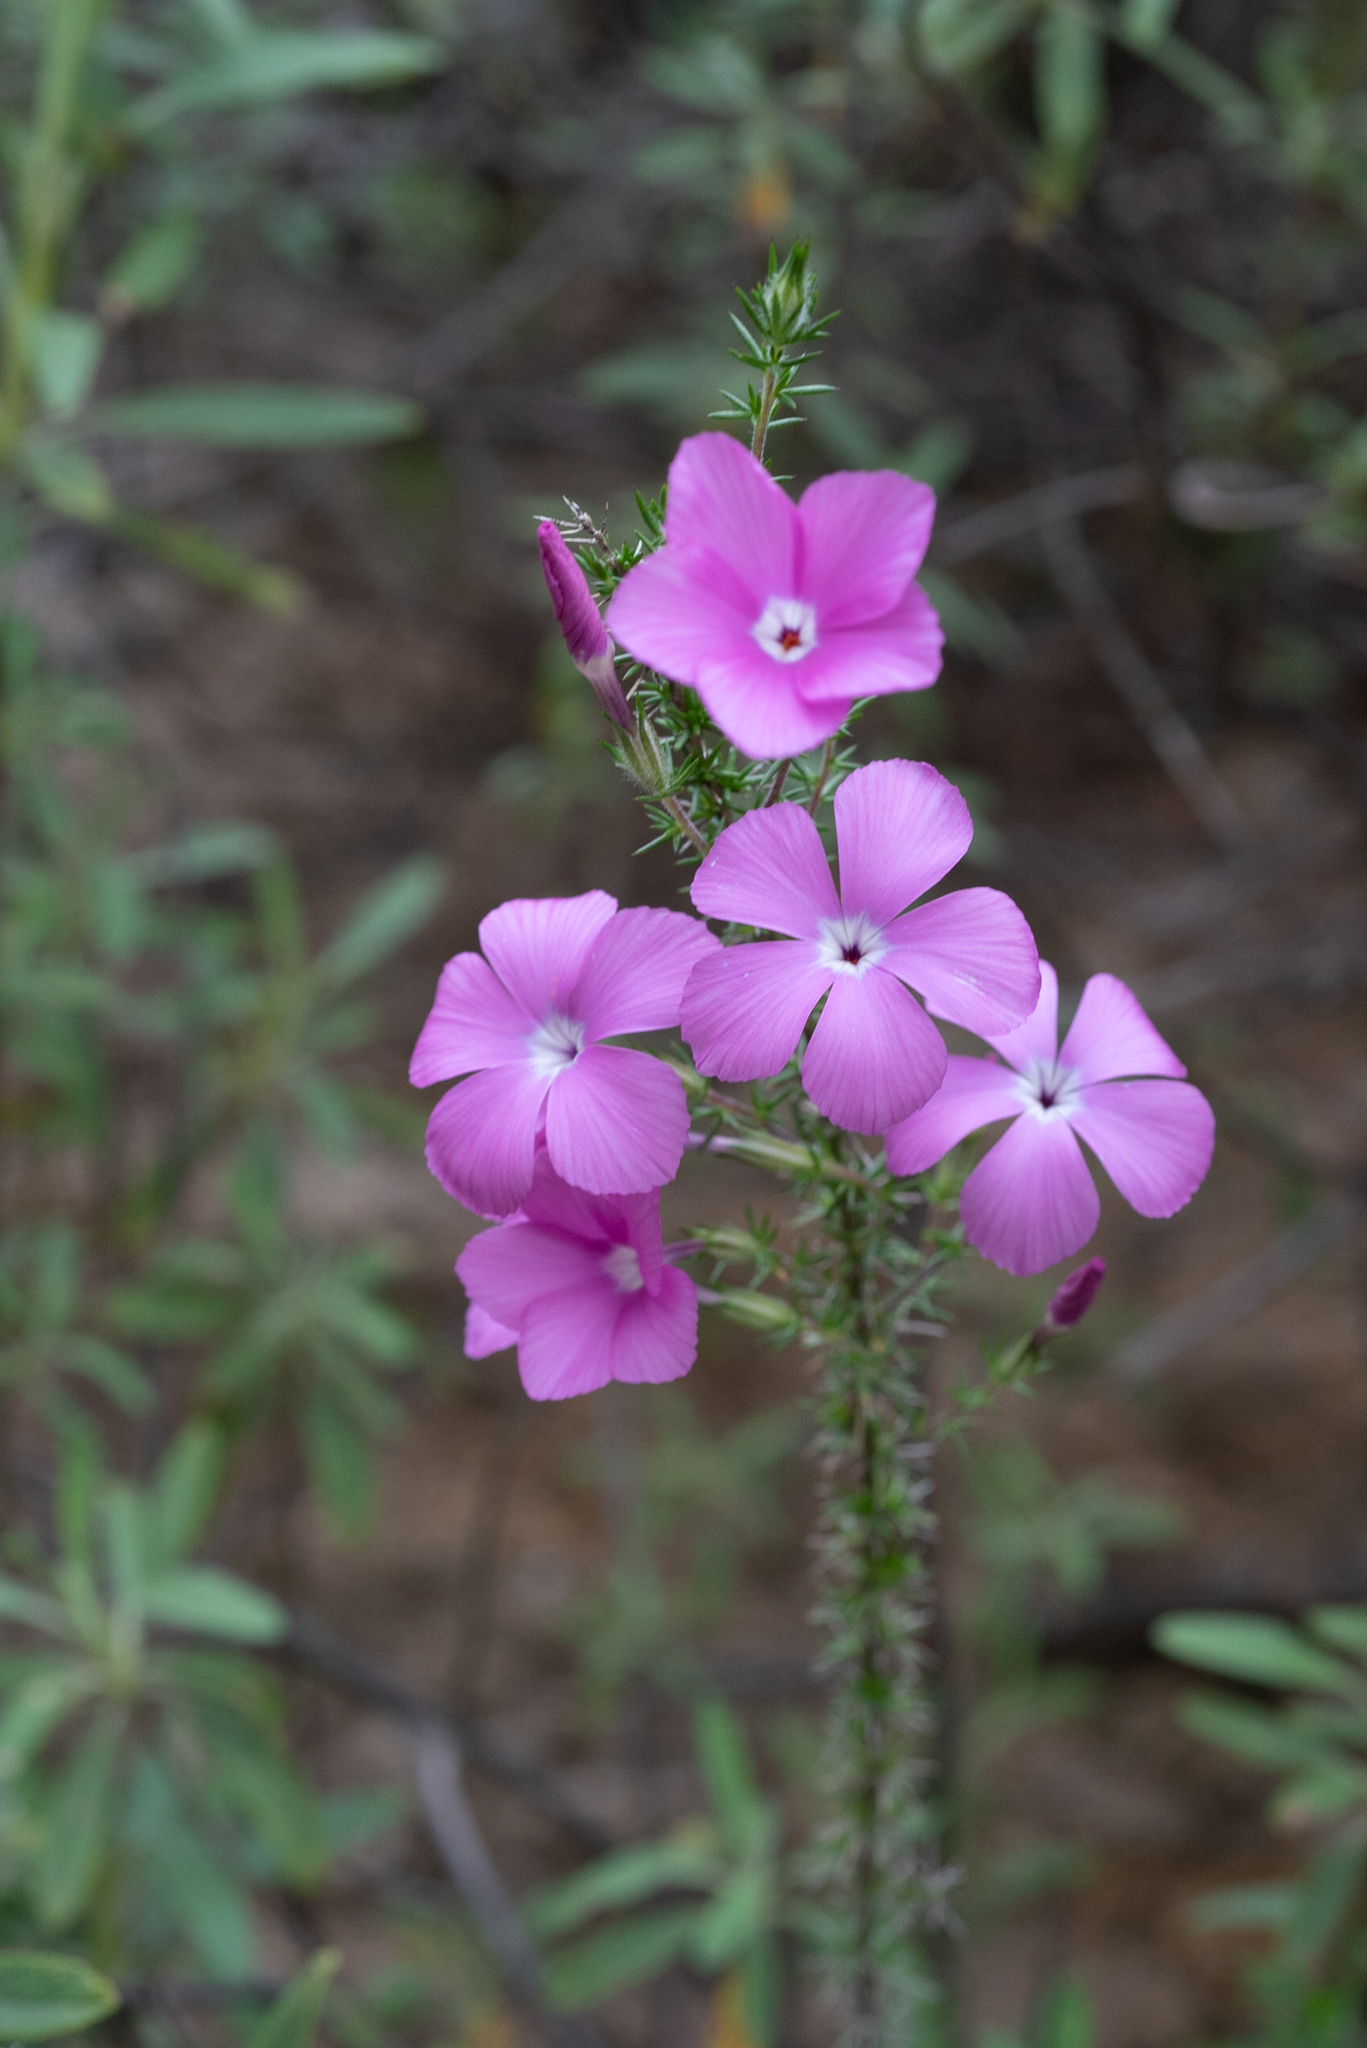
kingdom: Plantae
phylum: Tracheophyta
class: Magnoliopsida
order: Ericales
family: Polemoniaceae
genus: Linanthus
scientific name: Linanthus californicus
